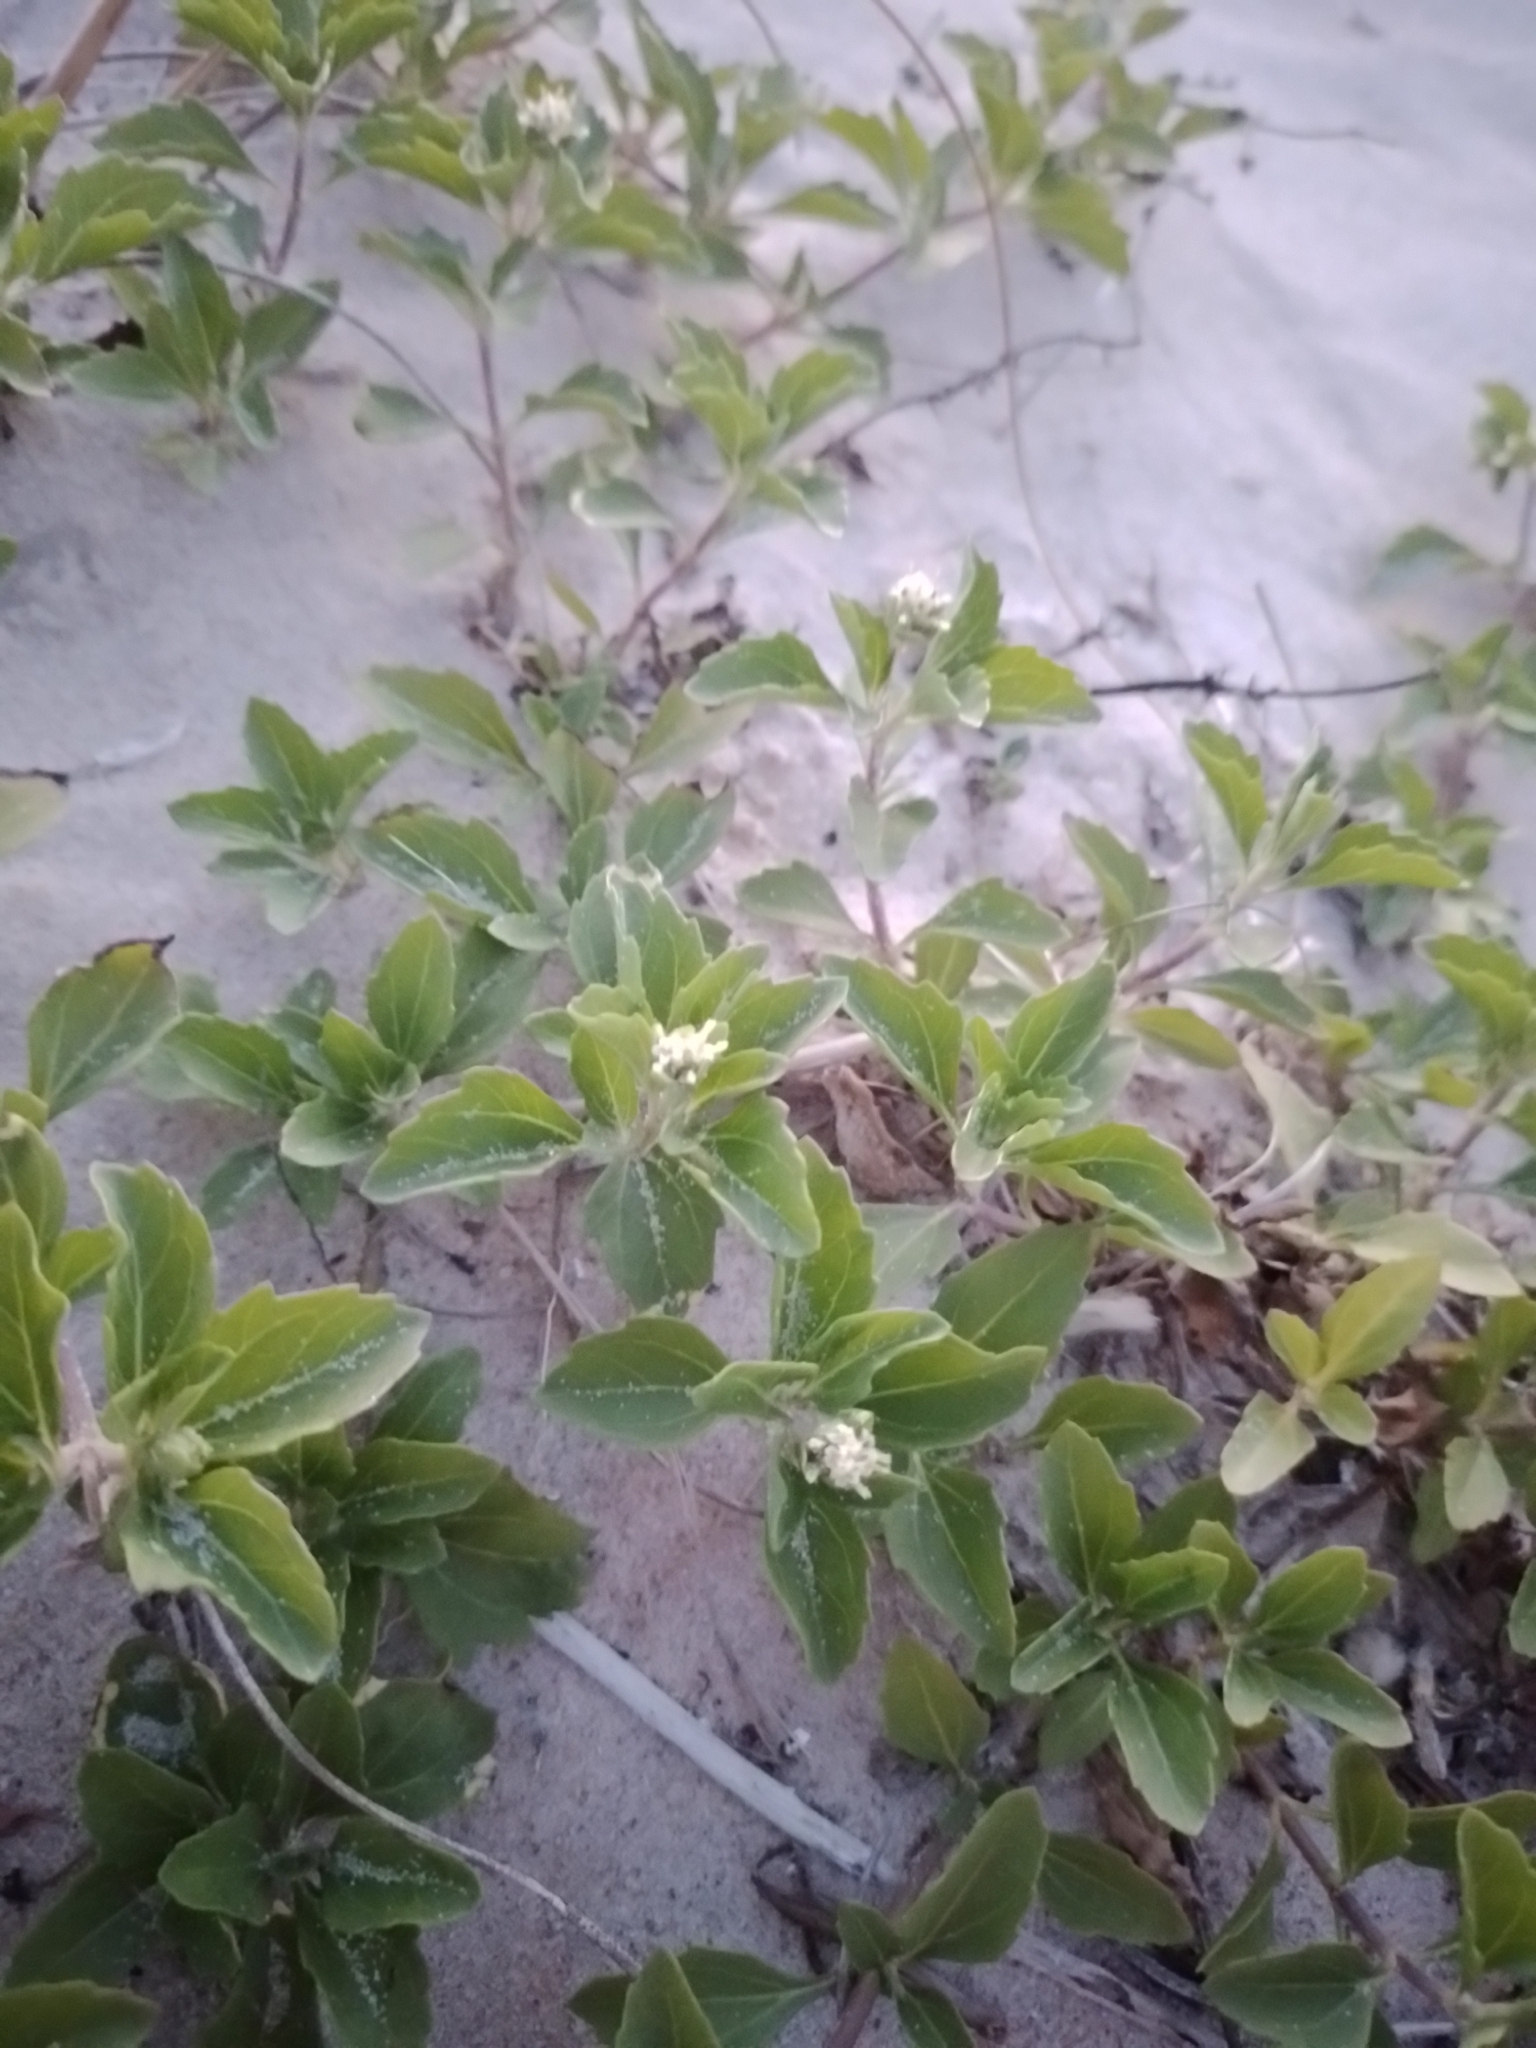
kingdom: Plantae
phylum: Tracheophyta
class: Magnoliopsida
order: Asterales
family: Asteraceae
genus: Acanthospermum
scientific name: Acanthospermum australe
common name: Paraguayan starbur
